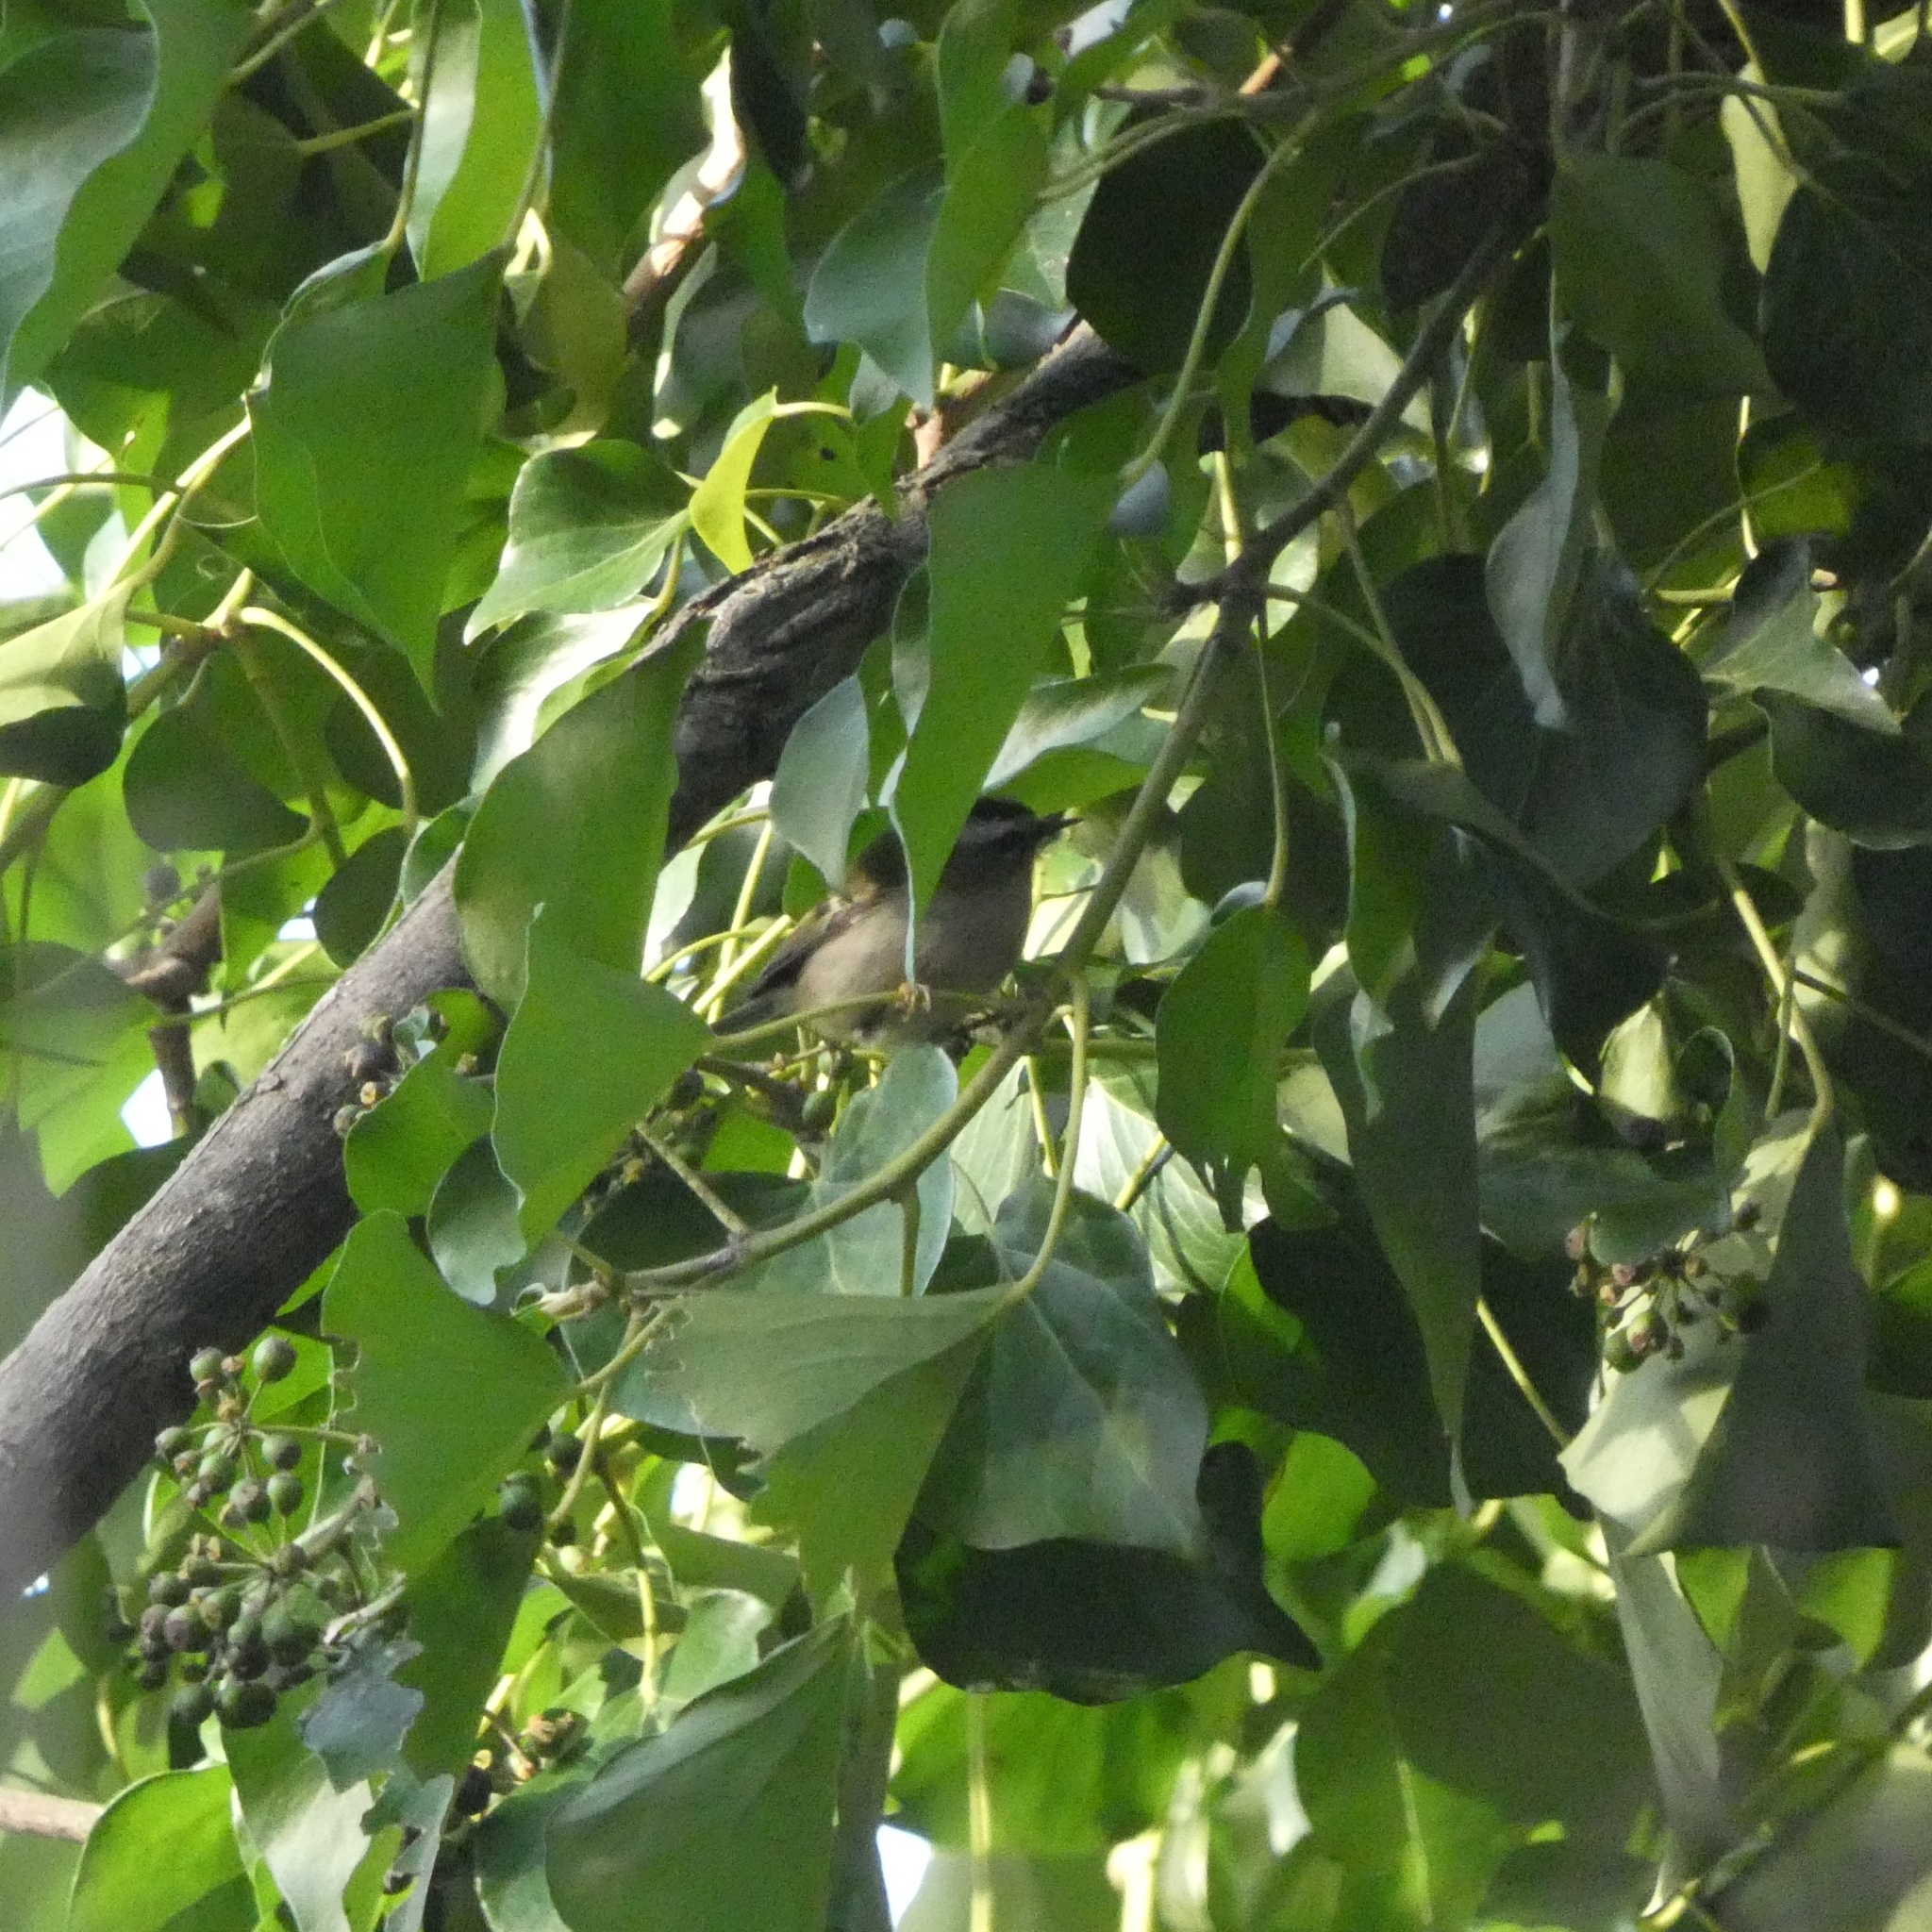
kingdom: Animalia
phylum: Chordata
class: Aves
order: Passeriformes
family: Regulidae
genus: Regulus
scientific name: Regulus ignicapilla
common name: Firecrest
